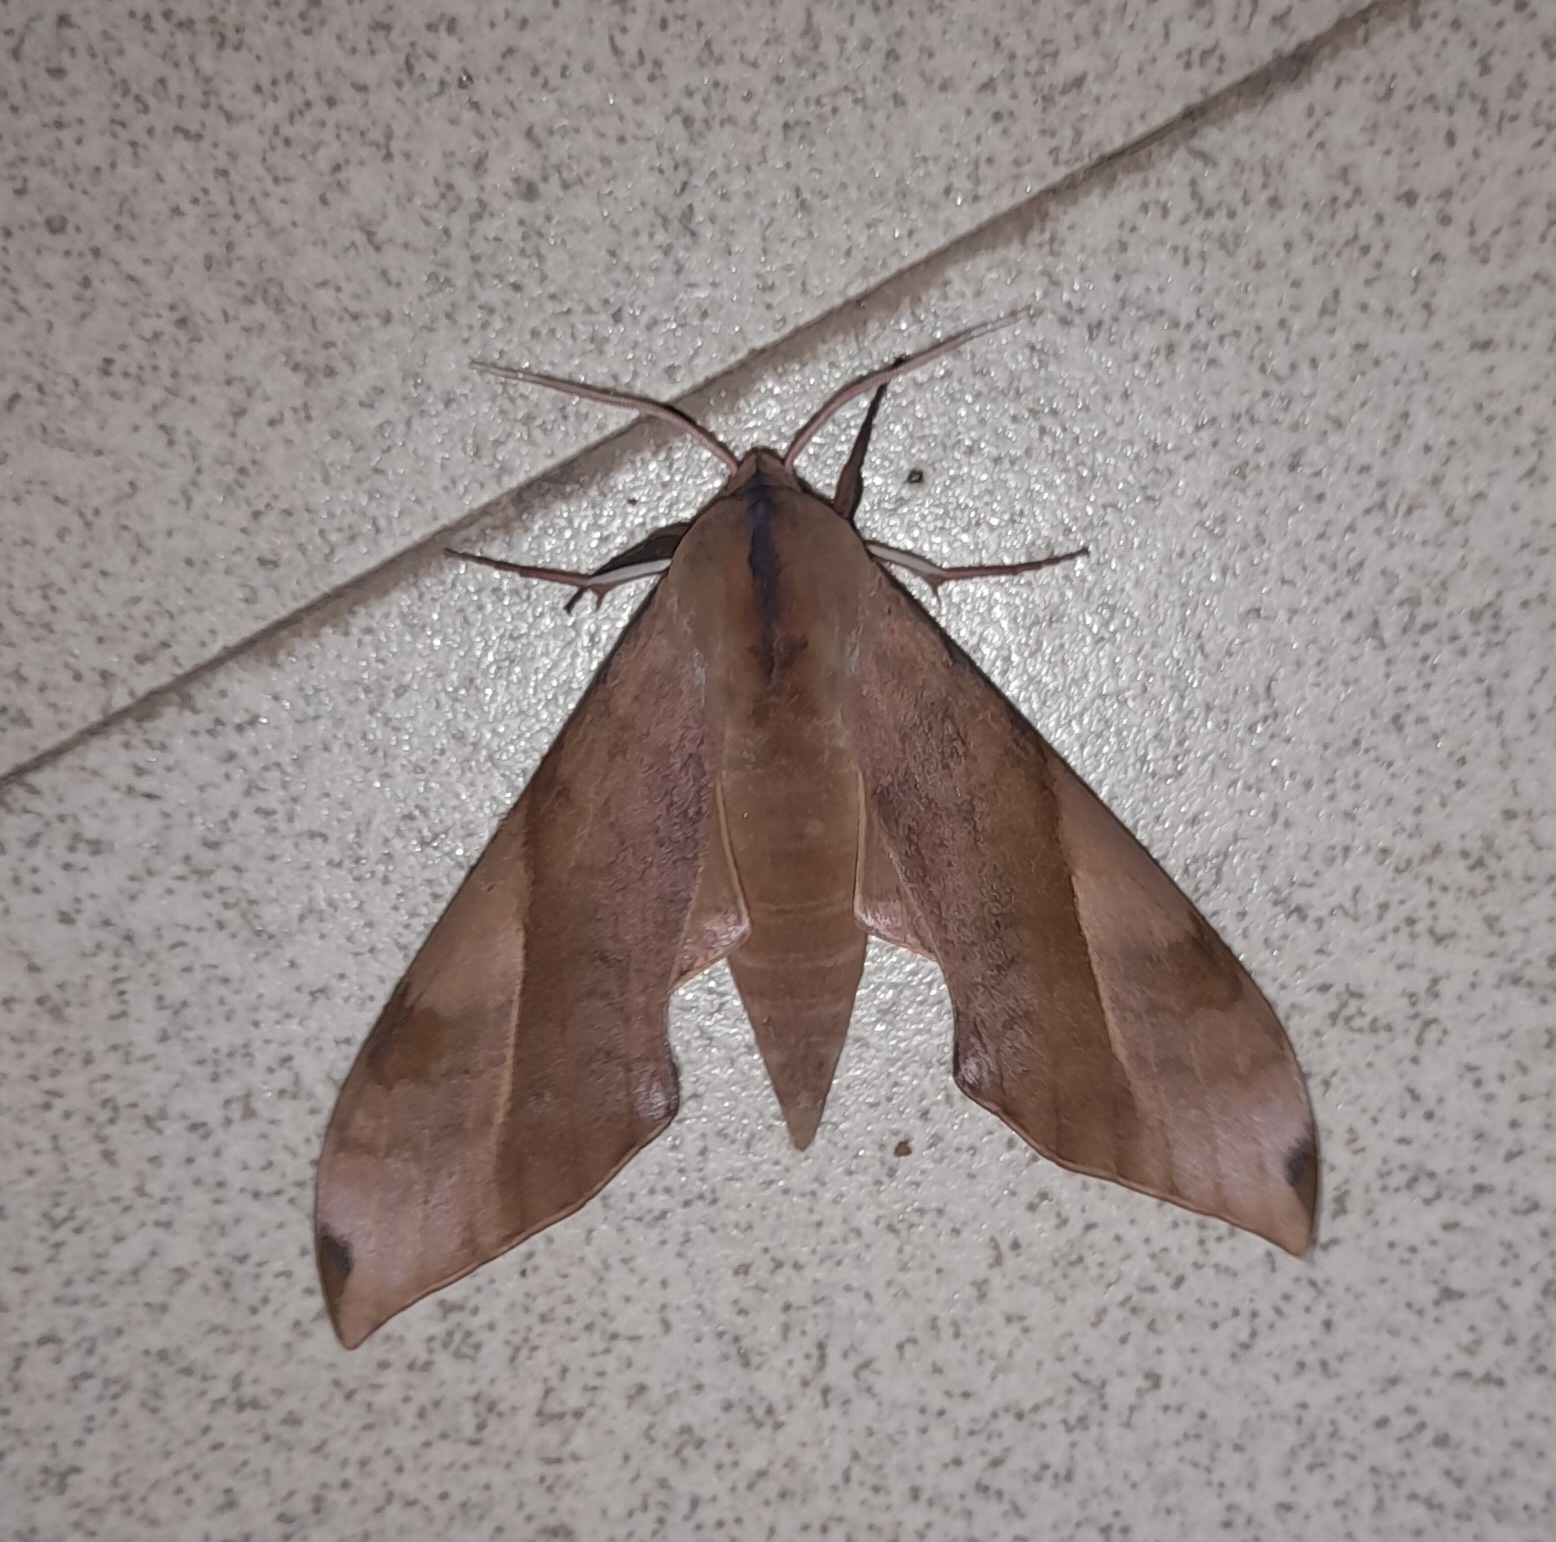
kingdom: Animalia
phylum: Arthropoda
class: Insecta
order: Lepidoptera
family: Sphingidae
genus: Clanis
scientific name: Clanis bilineata
